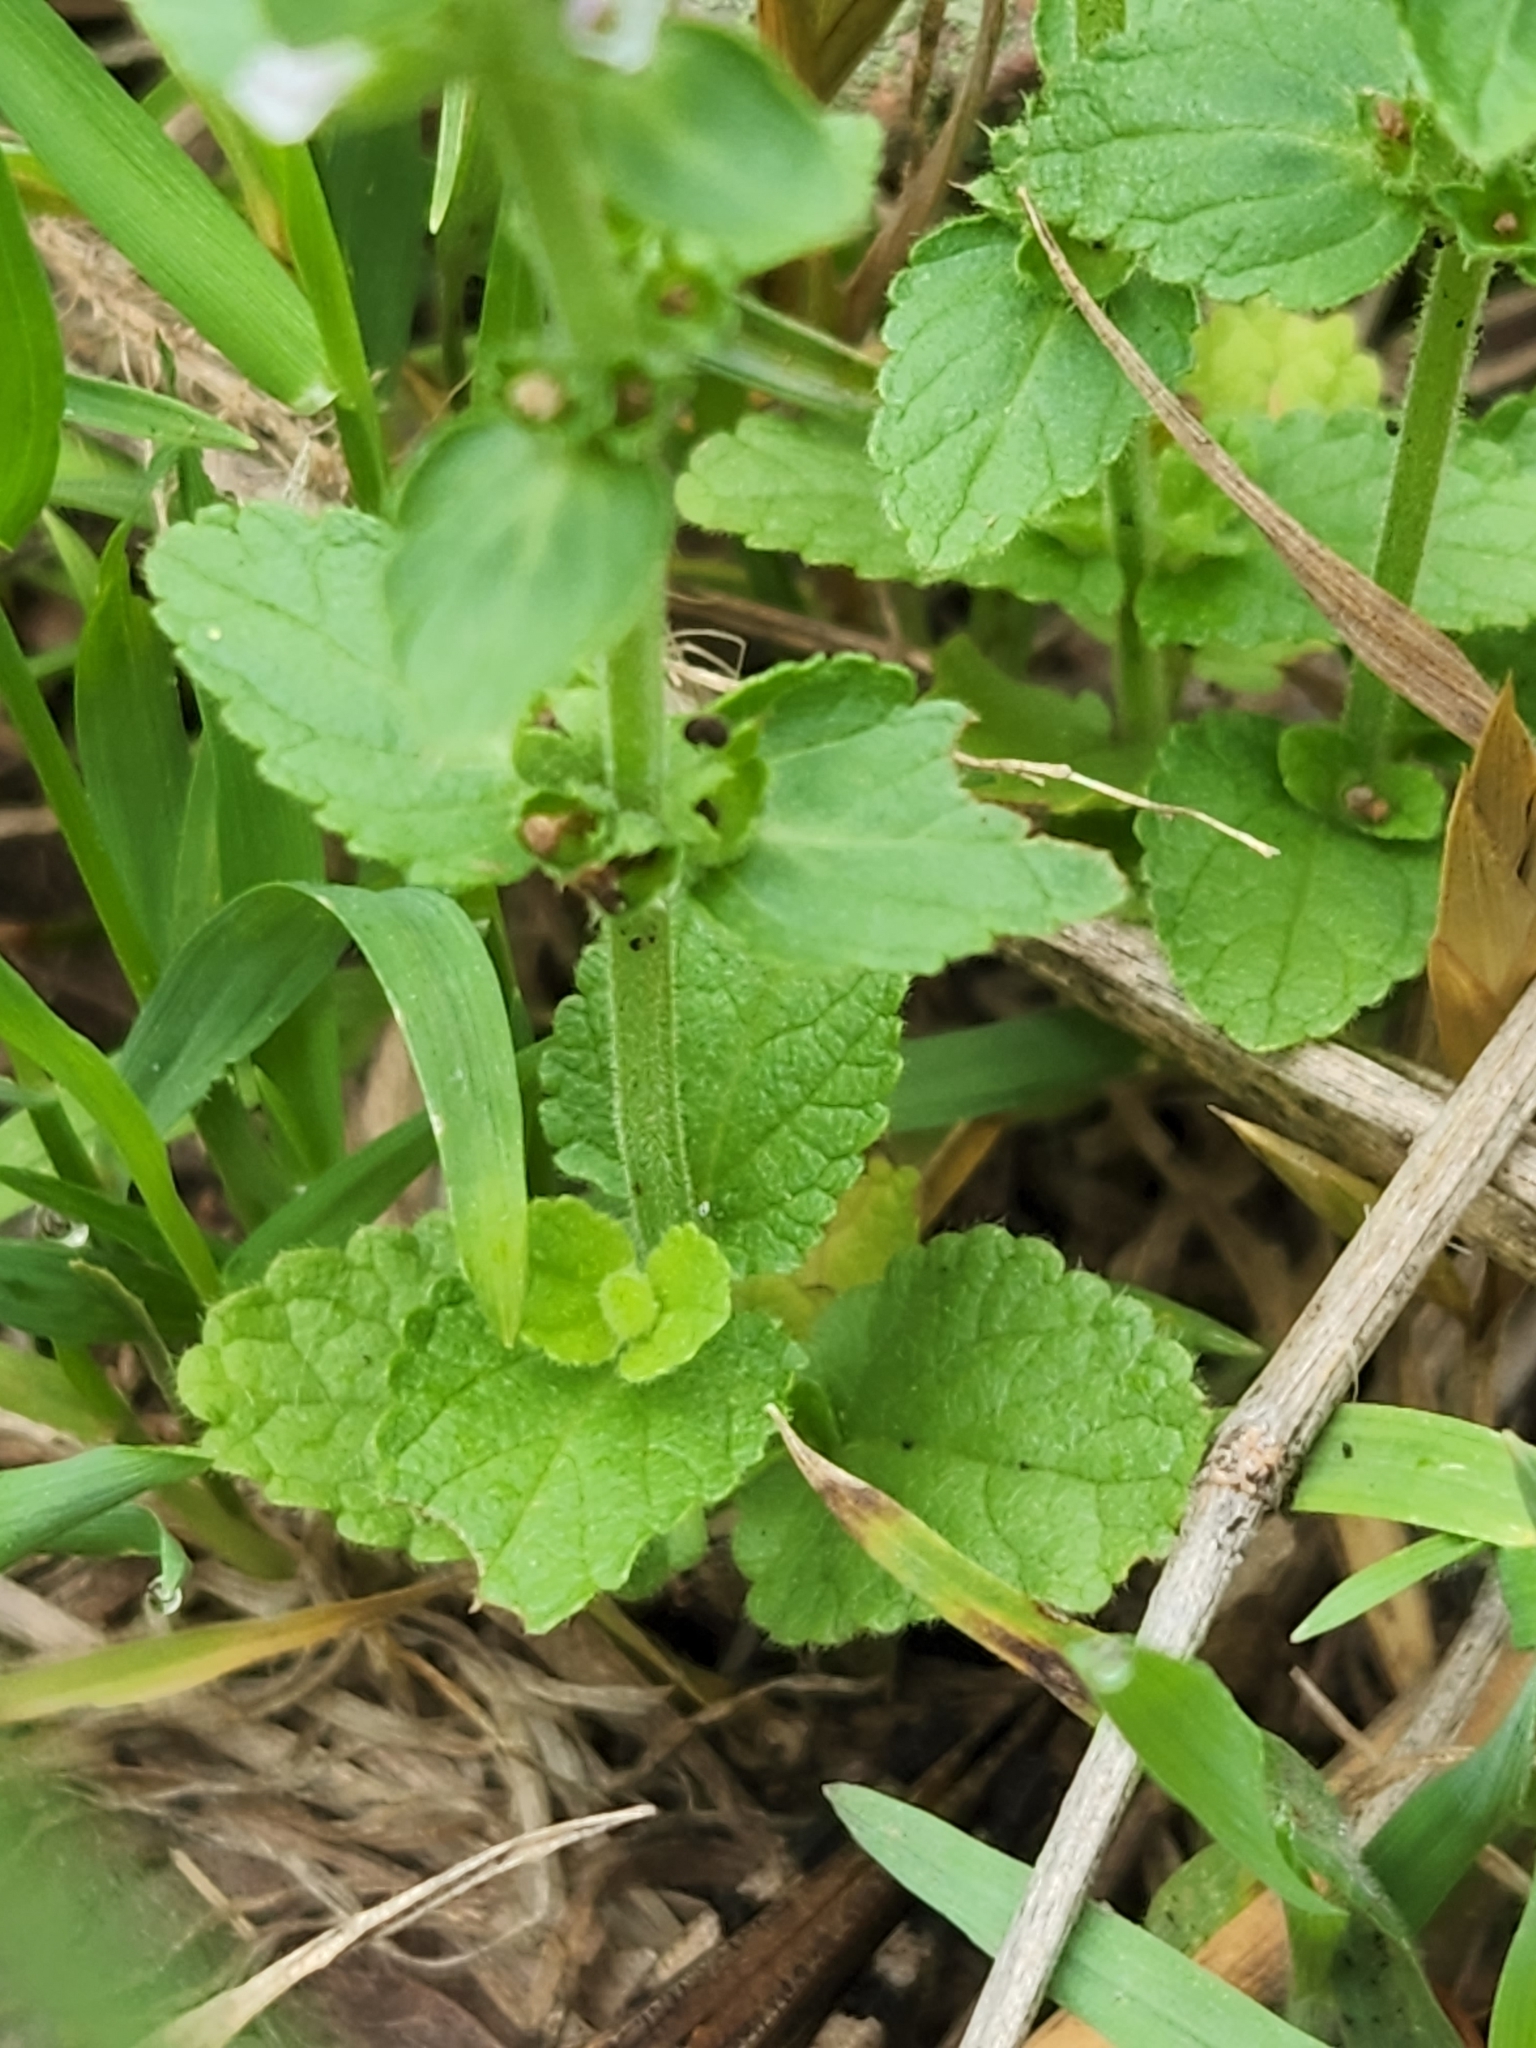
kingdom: Plantae
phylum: Tracheophyta
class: Magnoliopsida
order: Lamiales
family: Lamiaceae
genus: Stachys
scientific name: Stachys
